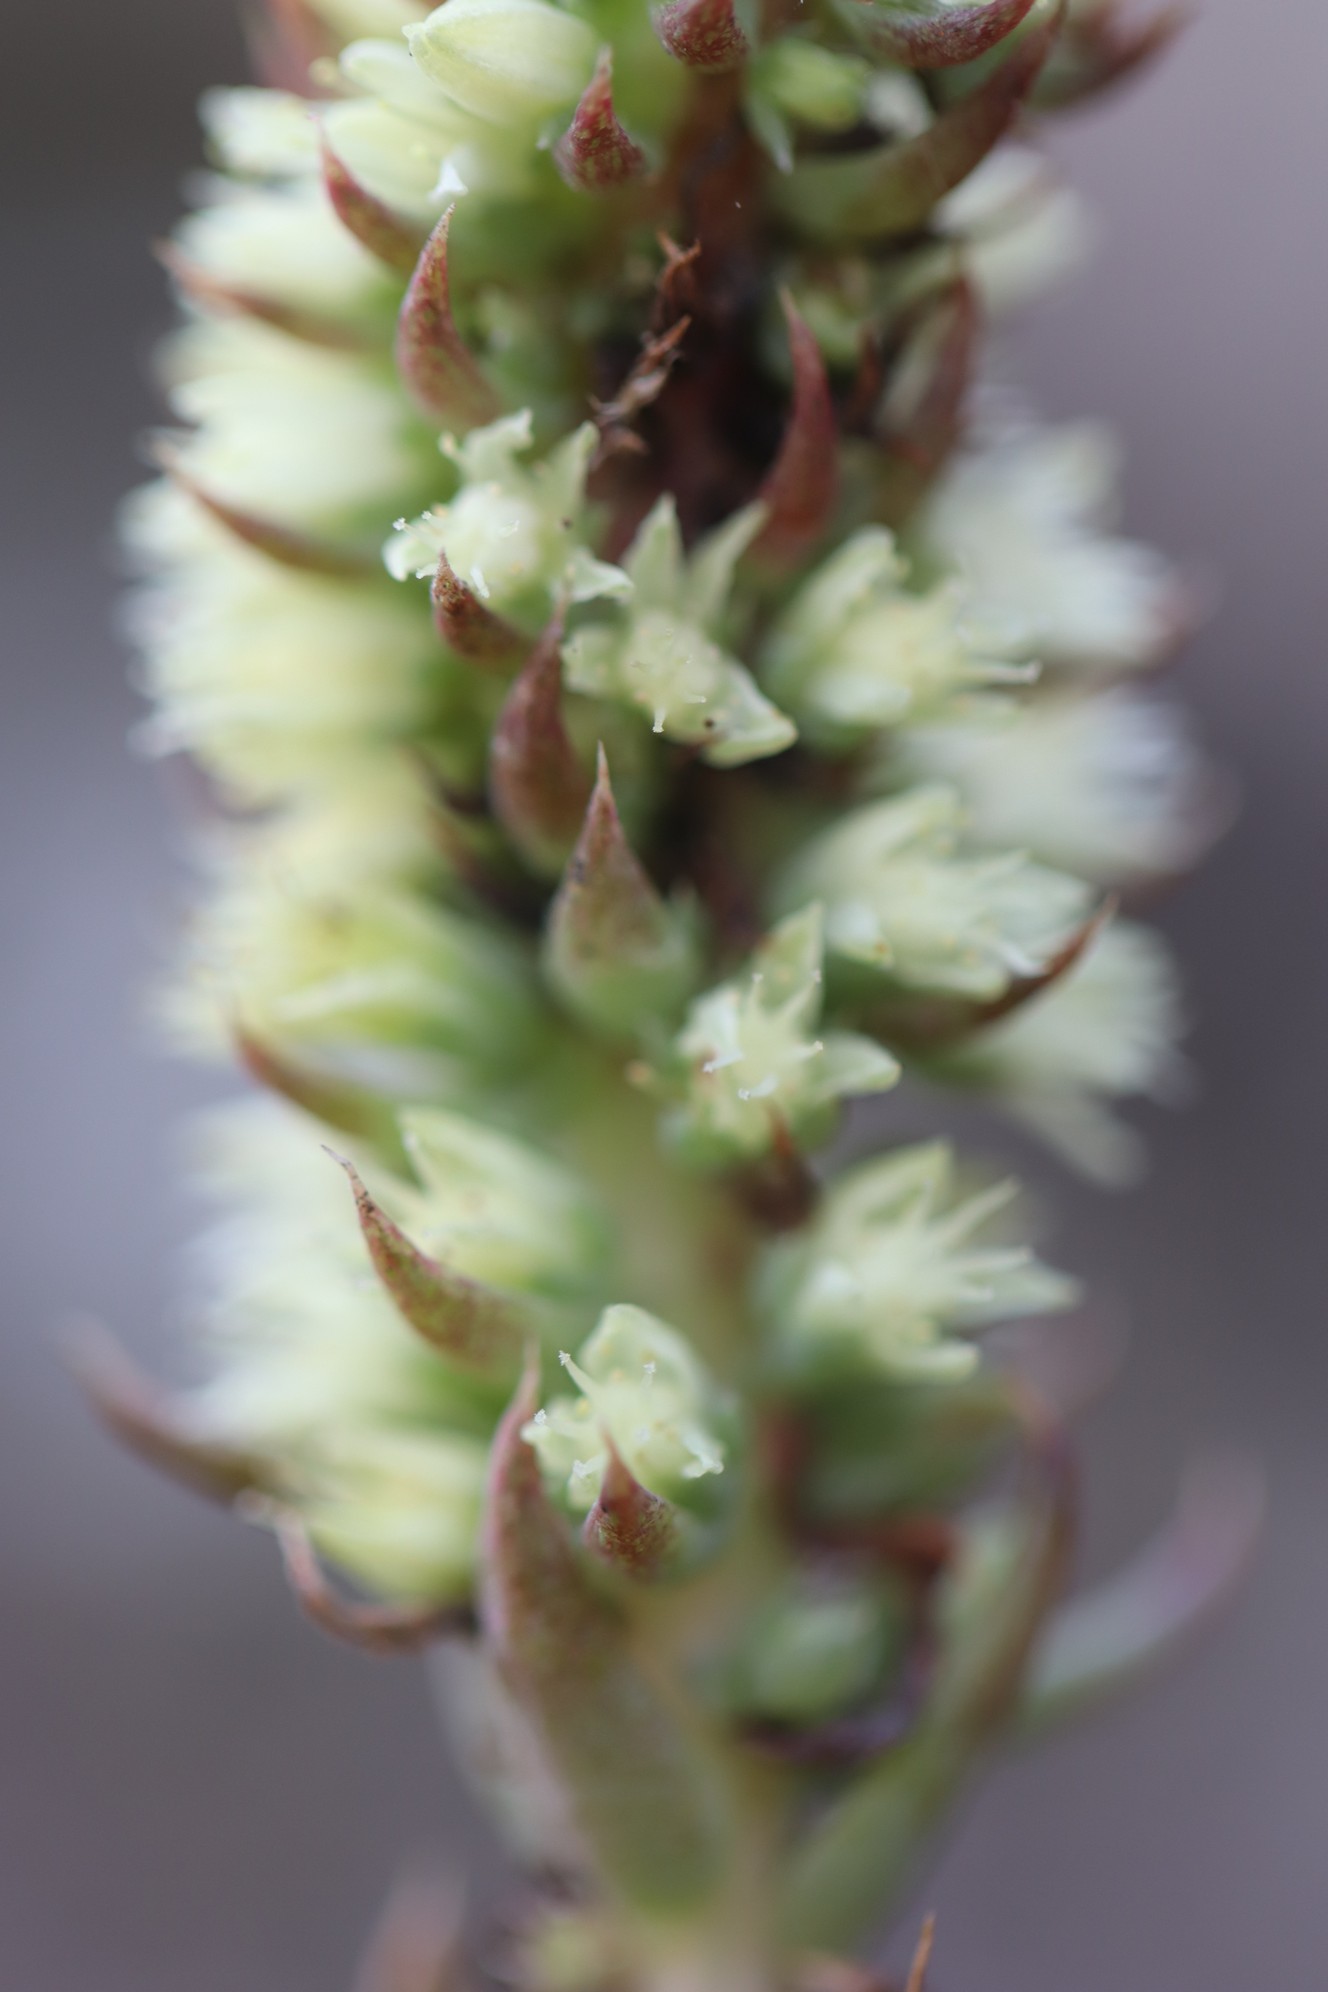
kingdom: Plantae
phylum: Tracheophyta
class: Magnoliopsida
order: Saxifragales
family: Crassulaceae
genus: Orostachys
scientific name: Orostachys spinosa
